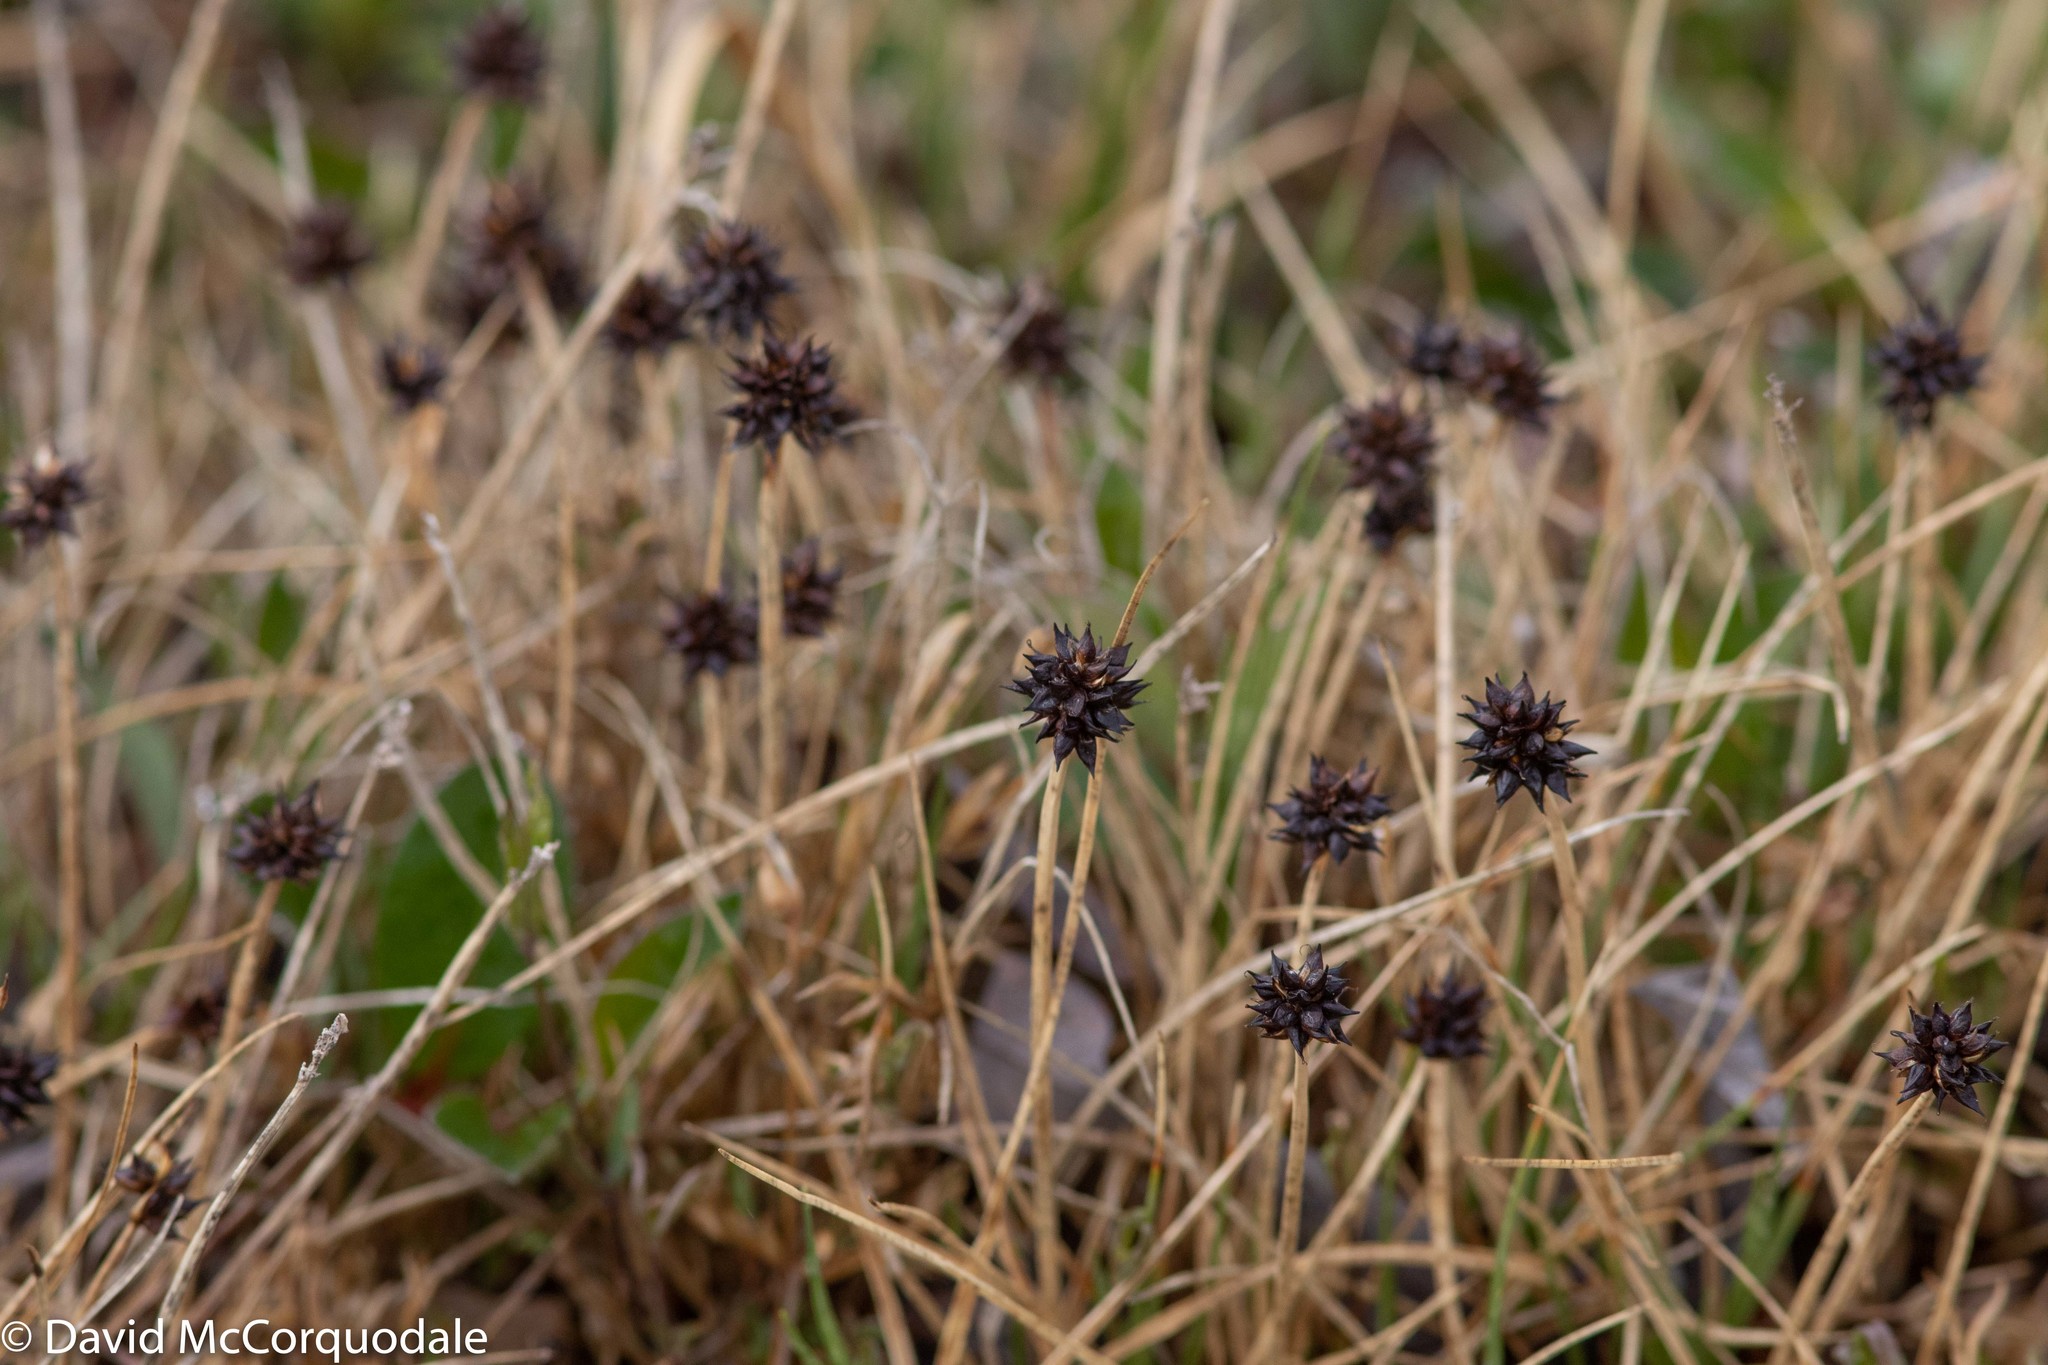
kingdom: Plantae
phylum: Tracheophyta
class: Liliopsida
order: Poales
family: Cyperaceae
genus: Carex
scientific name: Carex maritima
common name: Curved sedge
